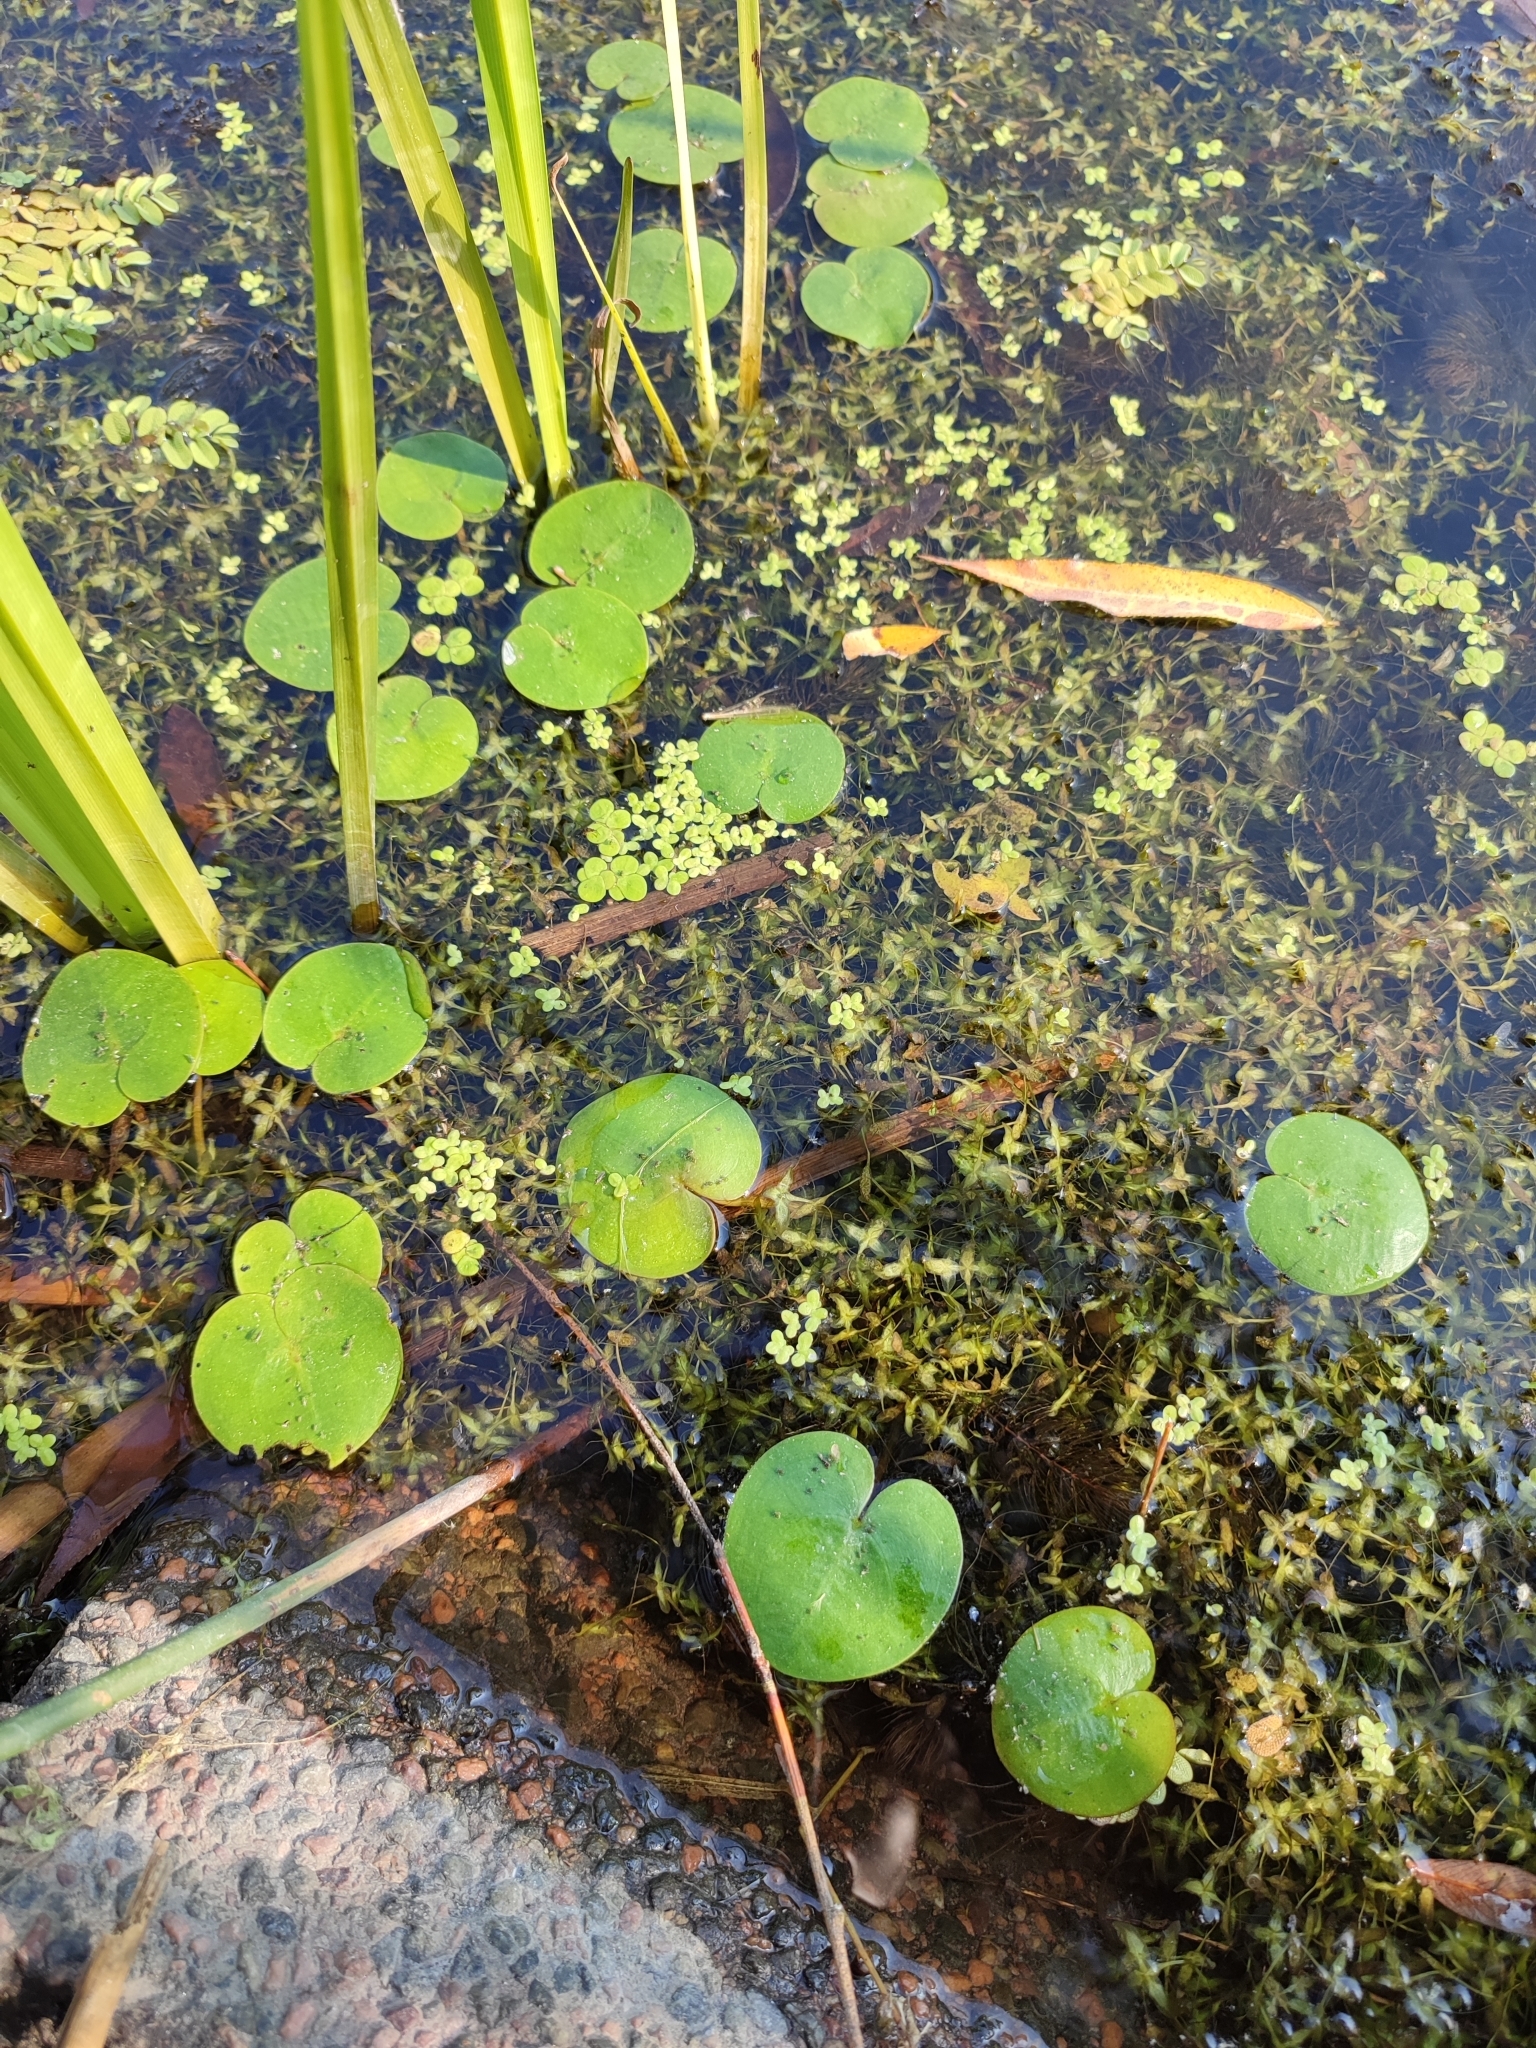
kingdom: Plantae
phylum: Tracheophyta
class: Liliopsida
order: Alismatales
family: Hydrocharitaceae
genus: Hydrocharis
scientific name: Hydrocharis morsus-ranae
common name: Frogbit
